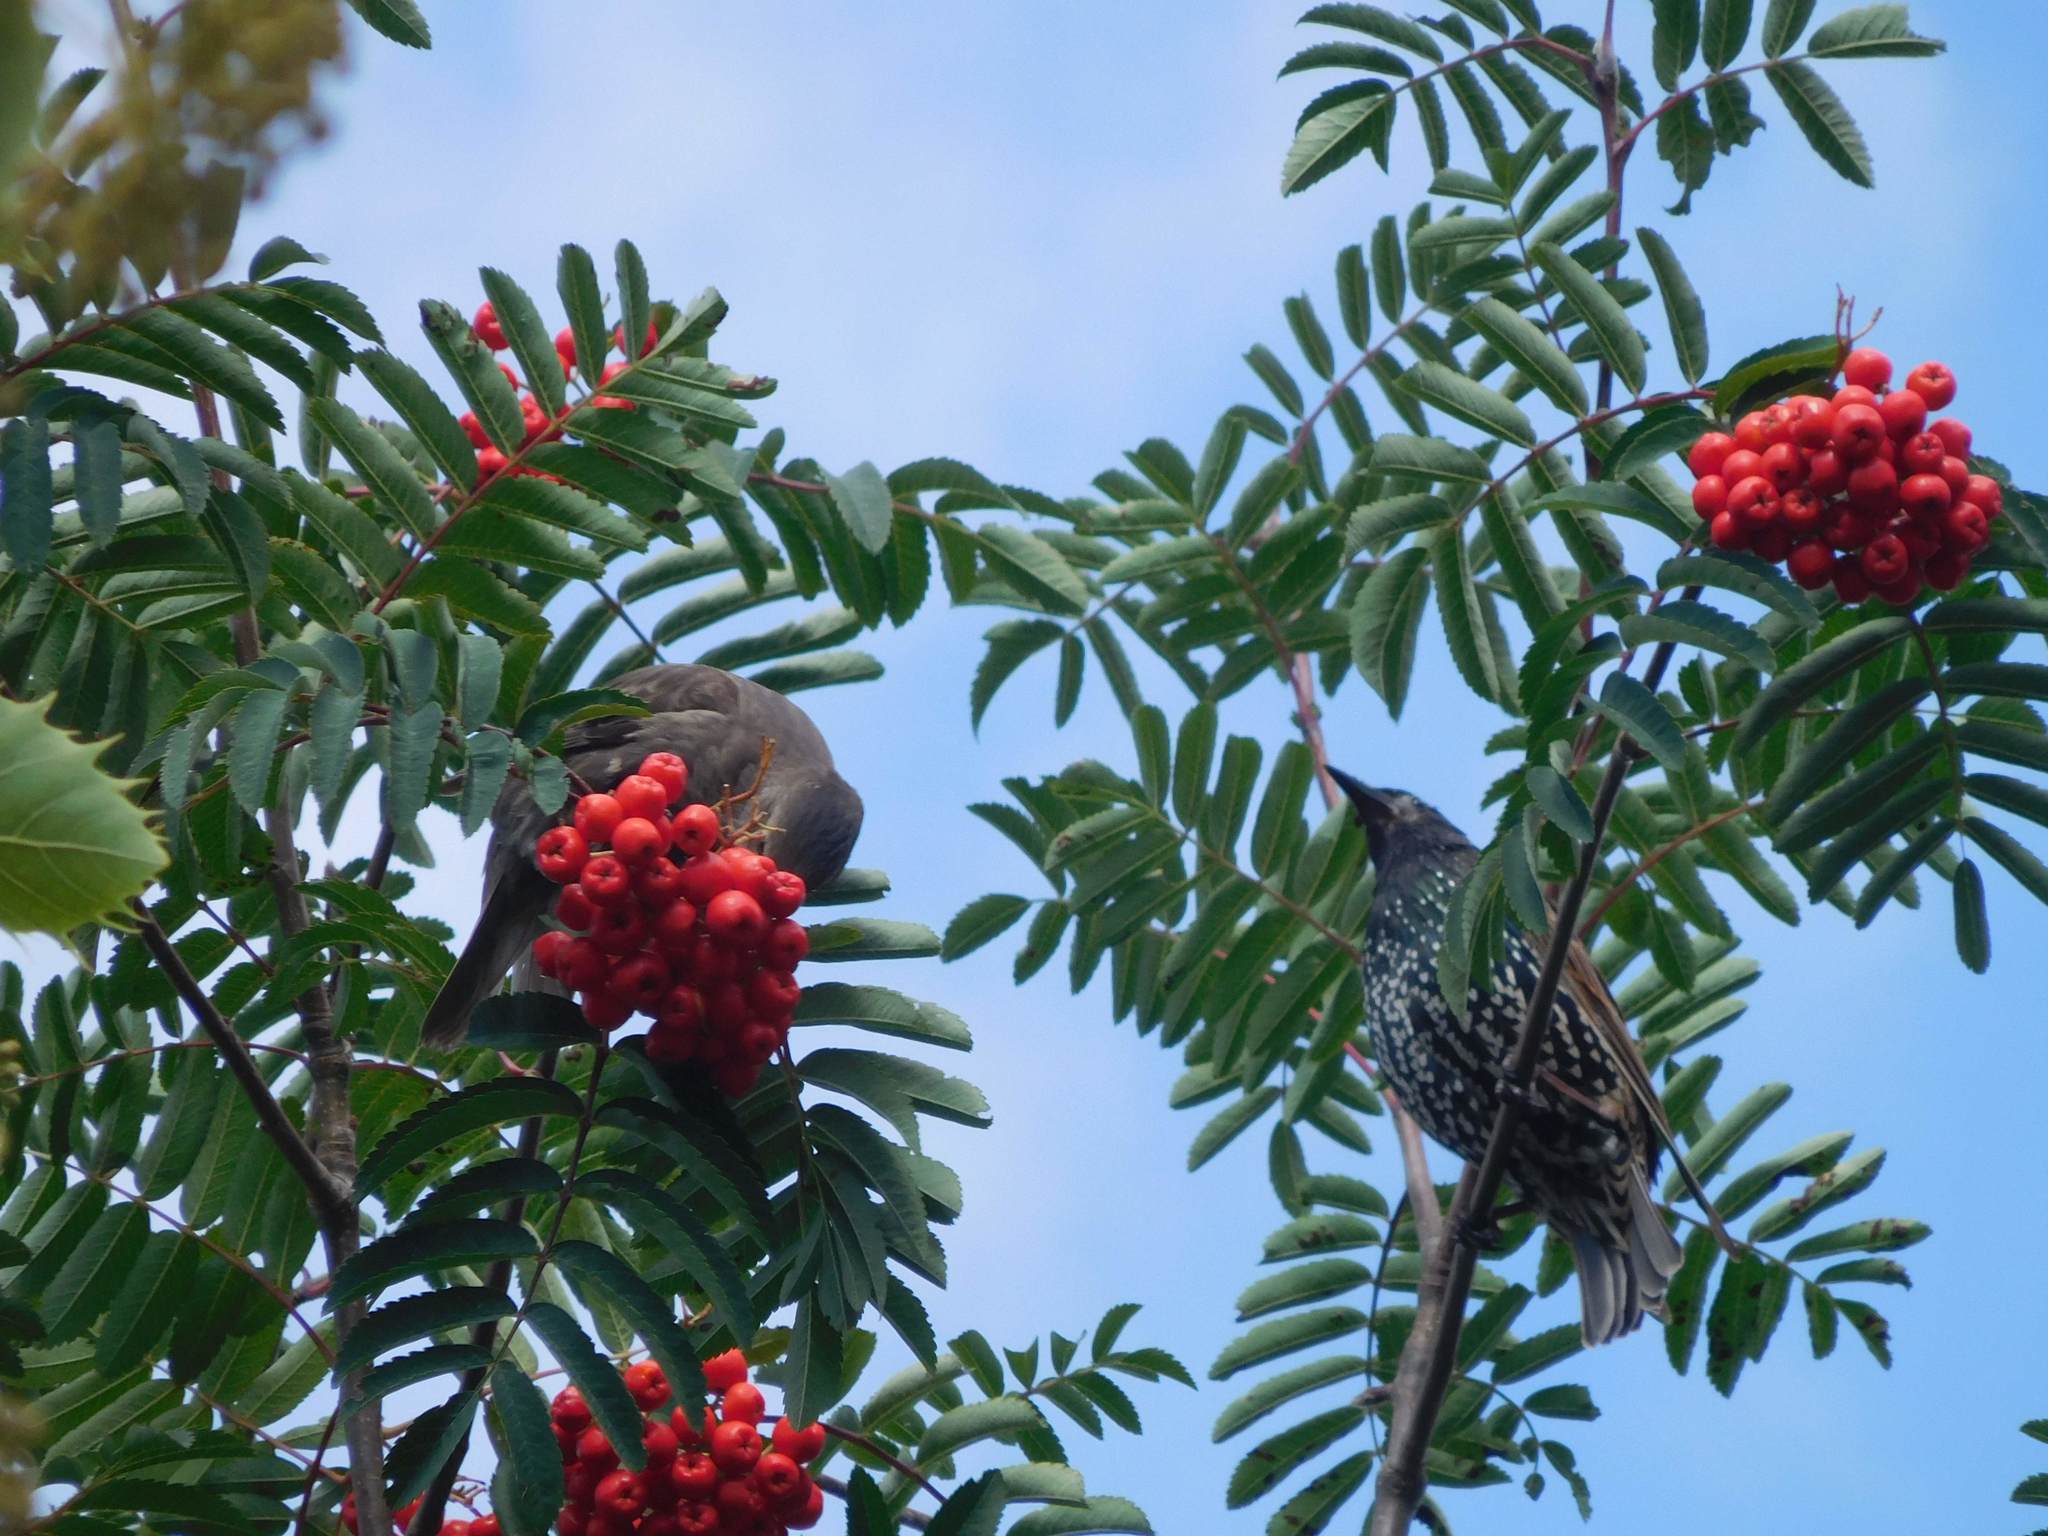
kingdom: Animalia
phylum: Chordata
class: Aves
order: Passeriformes
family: Sturnidae
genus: Sturnus
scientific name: Sturnus vulgaris
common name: Common starling
